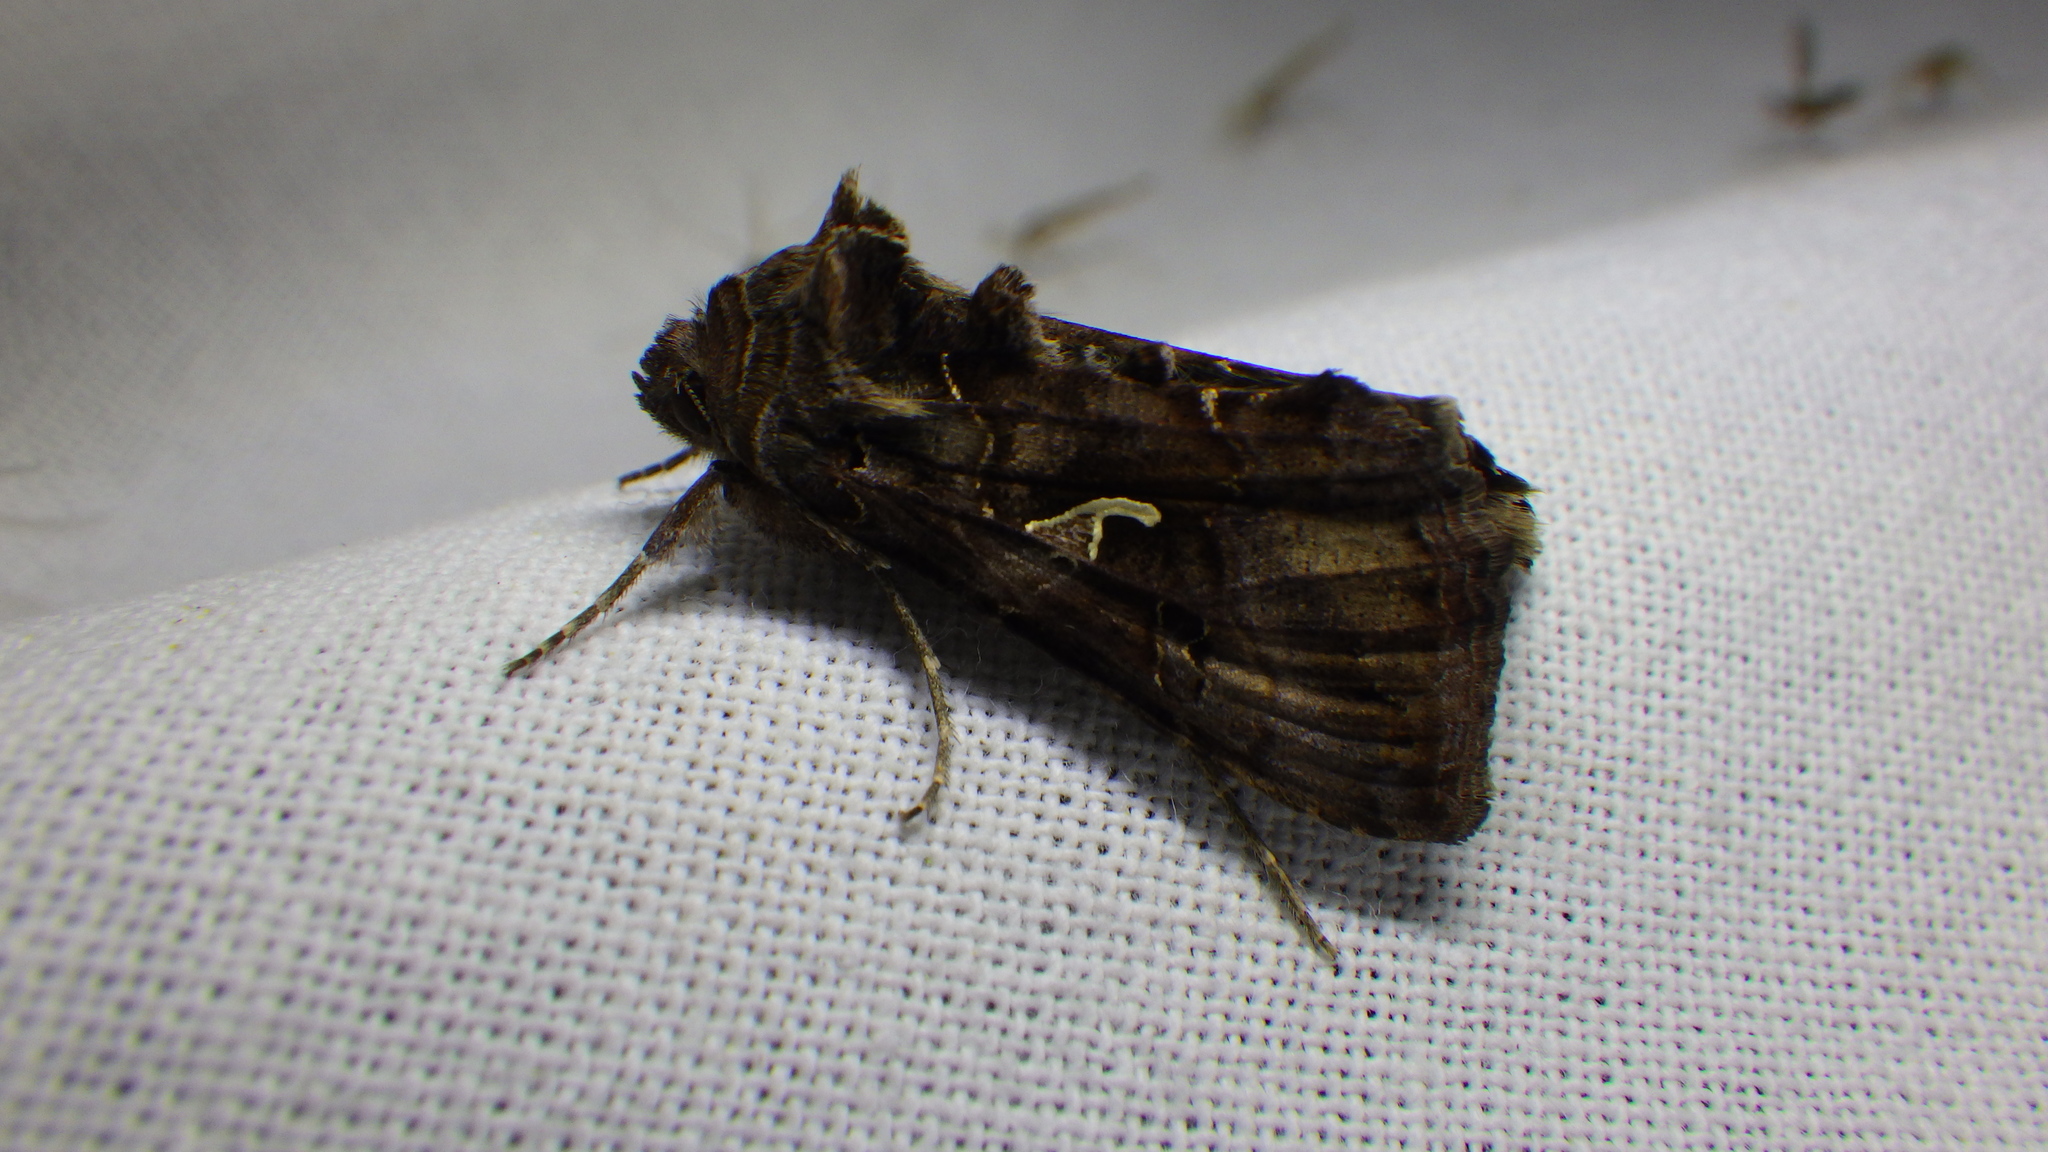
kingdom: Animalia
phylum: Arthropoda
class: Insecta
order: Lepidoptera
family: Noctuidae
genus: Autographa
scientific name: Autographa gamma
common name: Silver y
